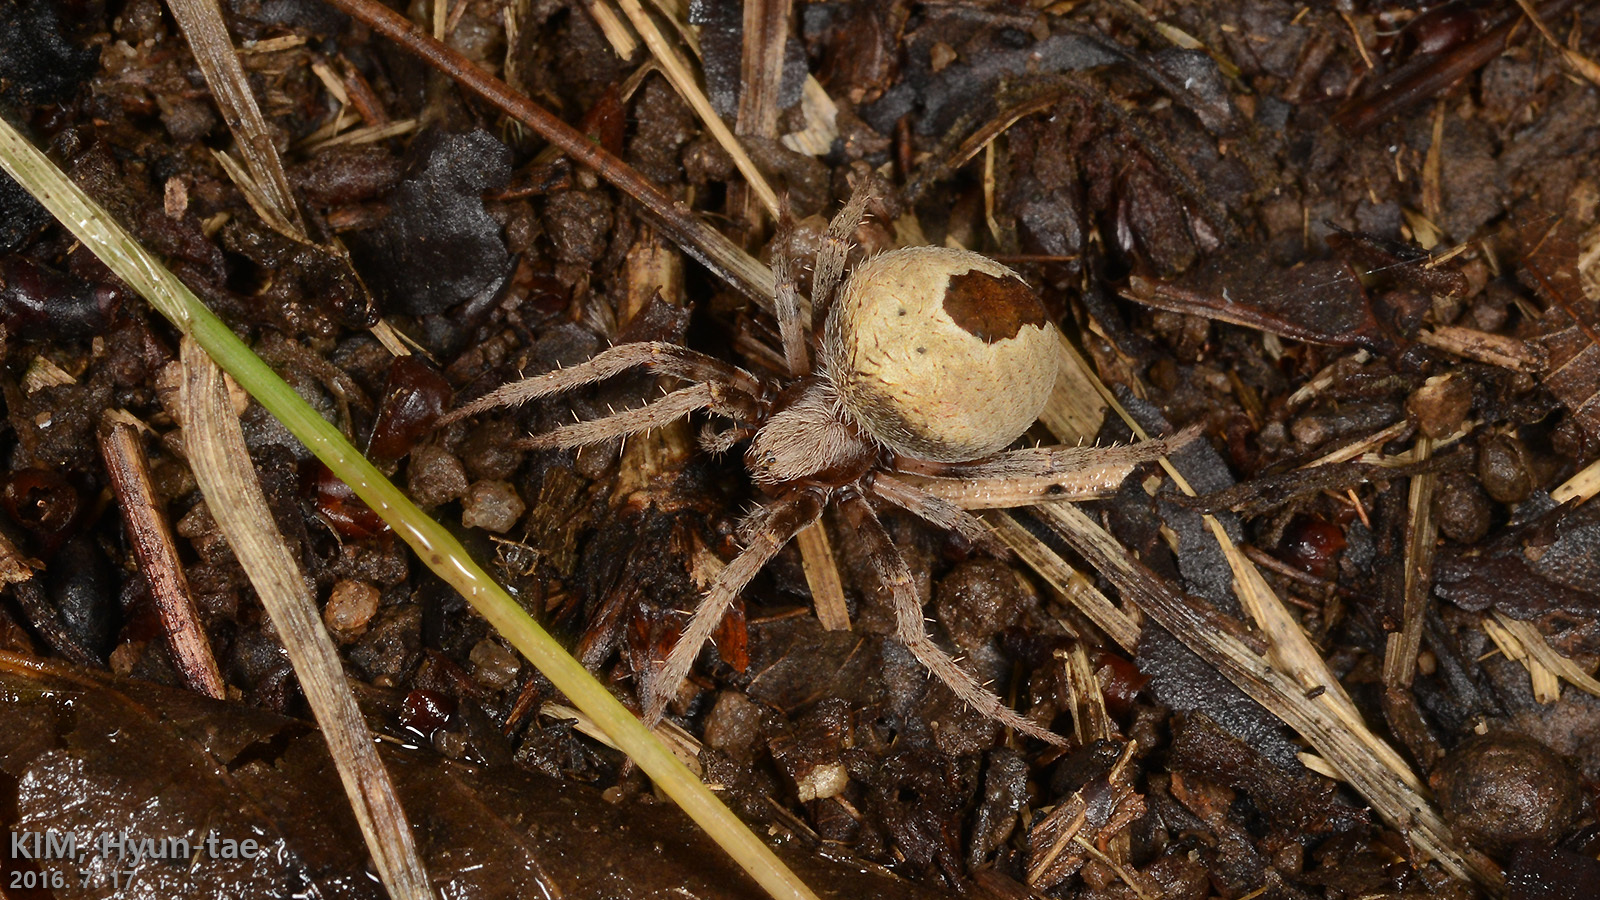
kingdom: Animalia
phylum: Arthropoda
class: Arachnida
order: Araneae
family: Araneidae
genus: Neoscona
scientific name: Neoscona scylla
